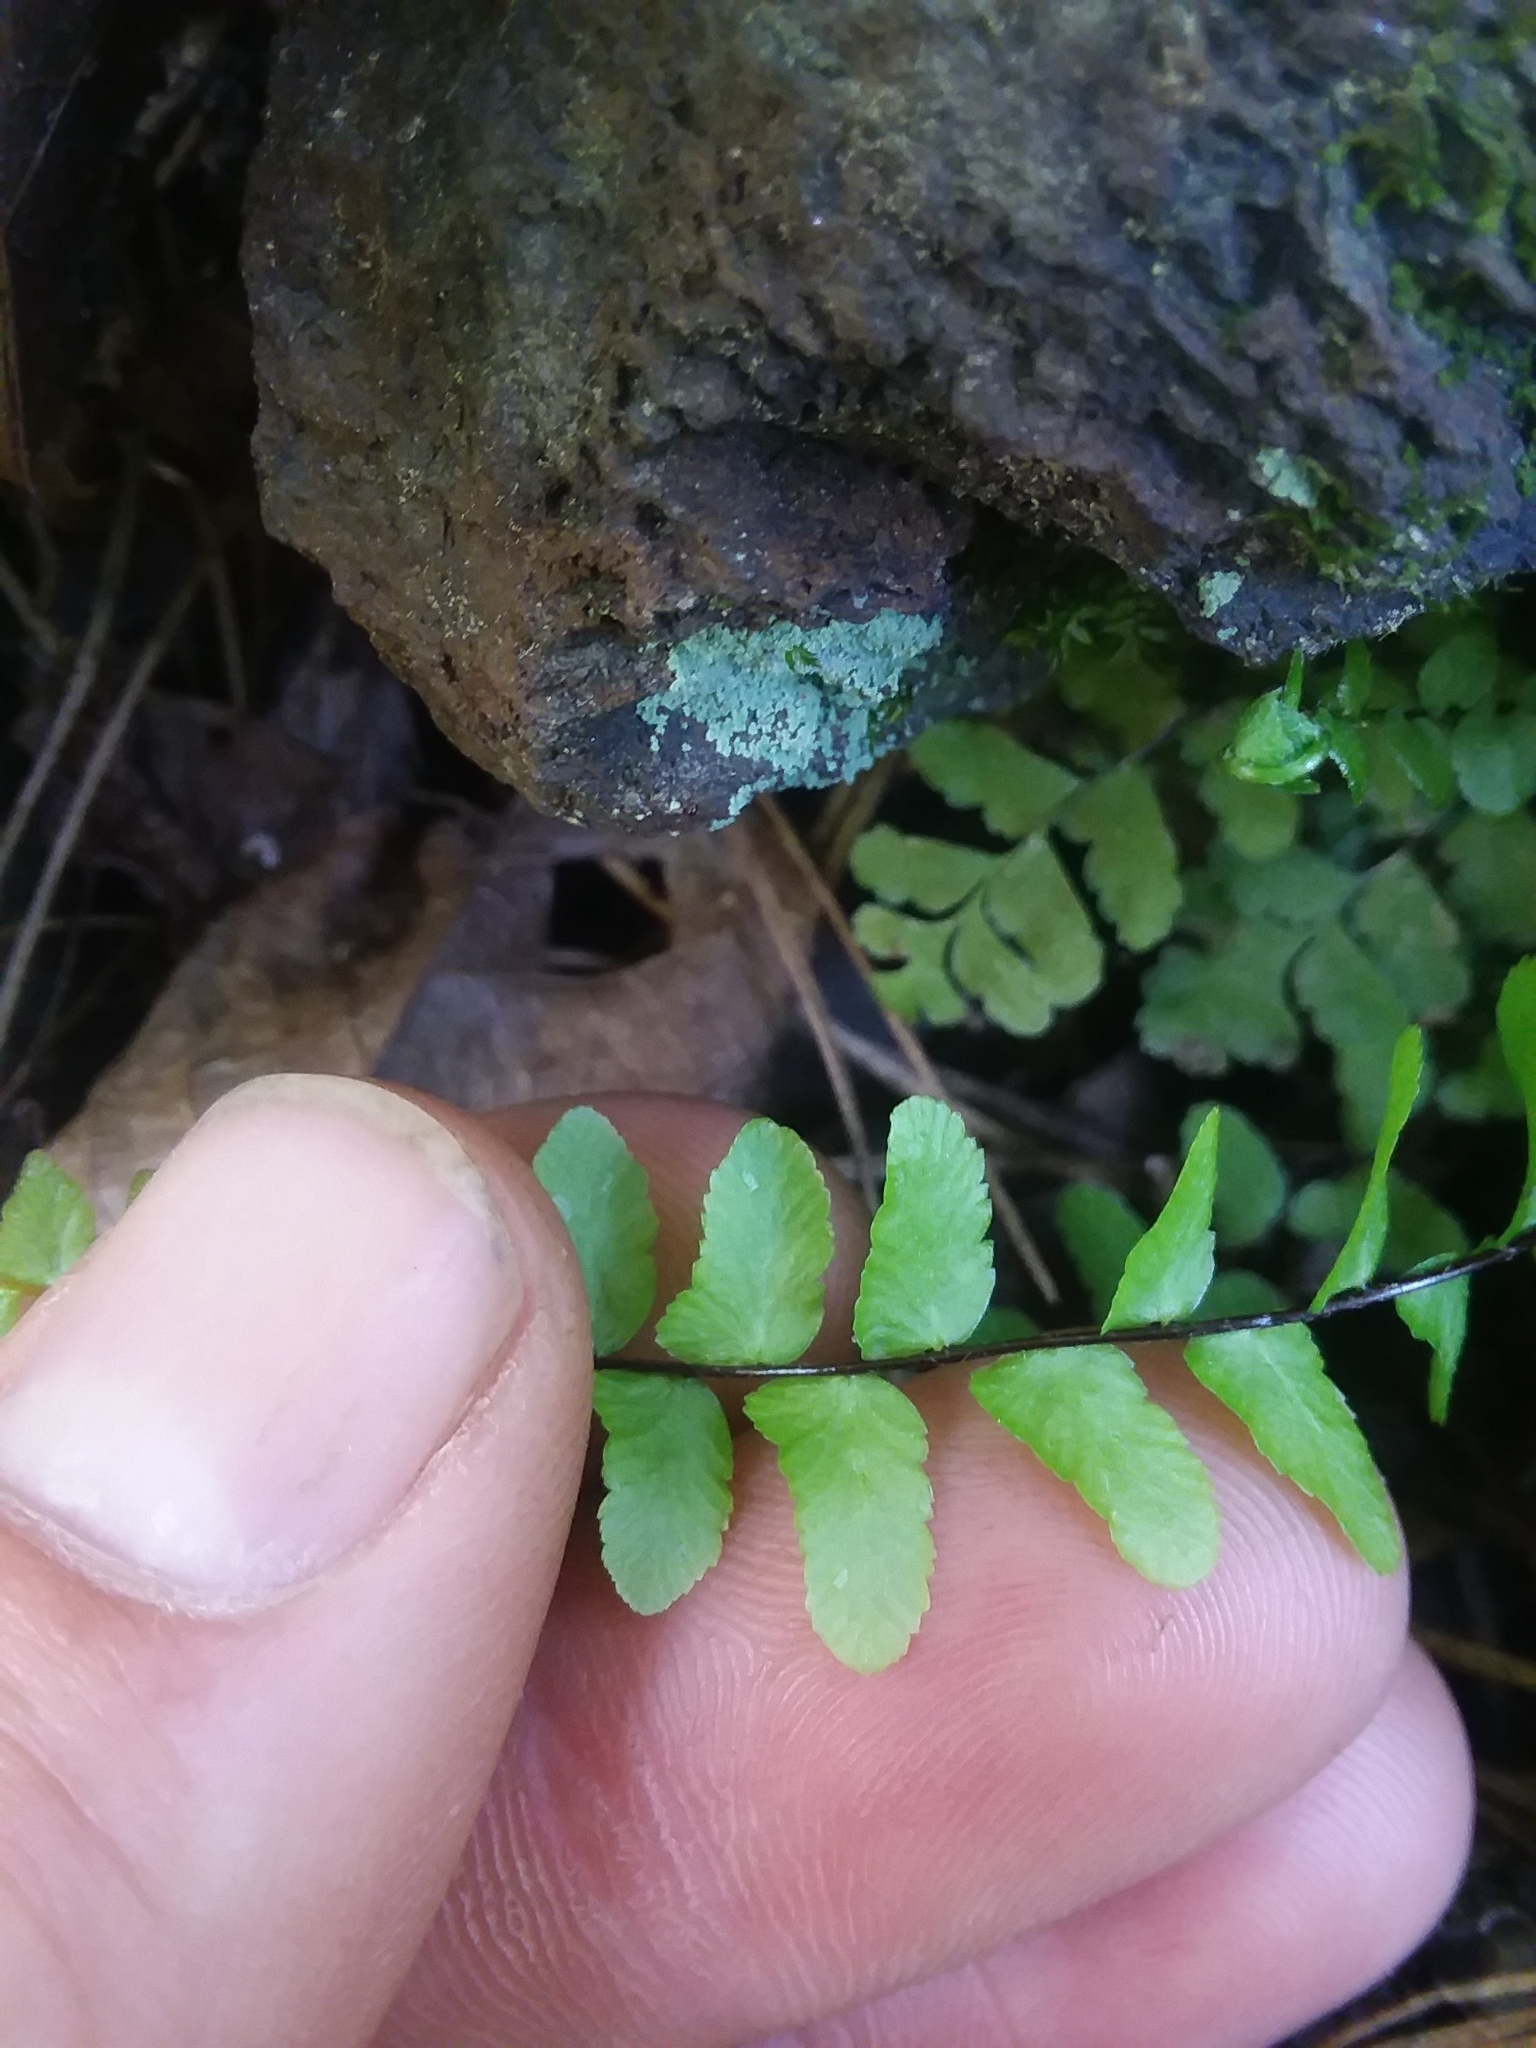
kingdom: Plantae
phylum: Tracheophyta
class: Polypodiopsida
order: Polypodiales
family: Aspleniaceae
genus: Asplenium
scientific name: Asplenium platyneuron
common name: Ebony spleenwort
